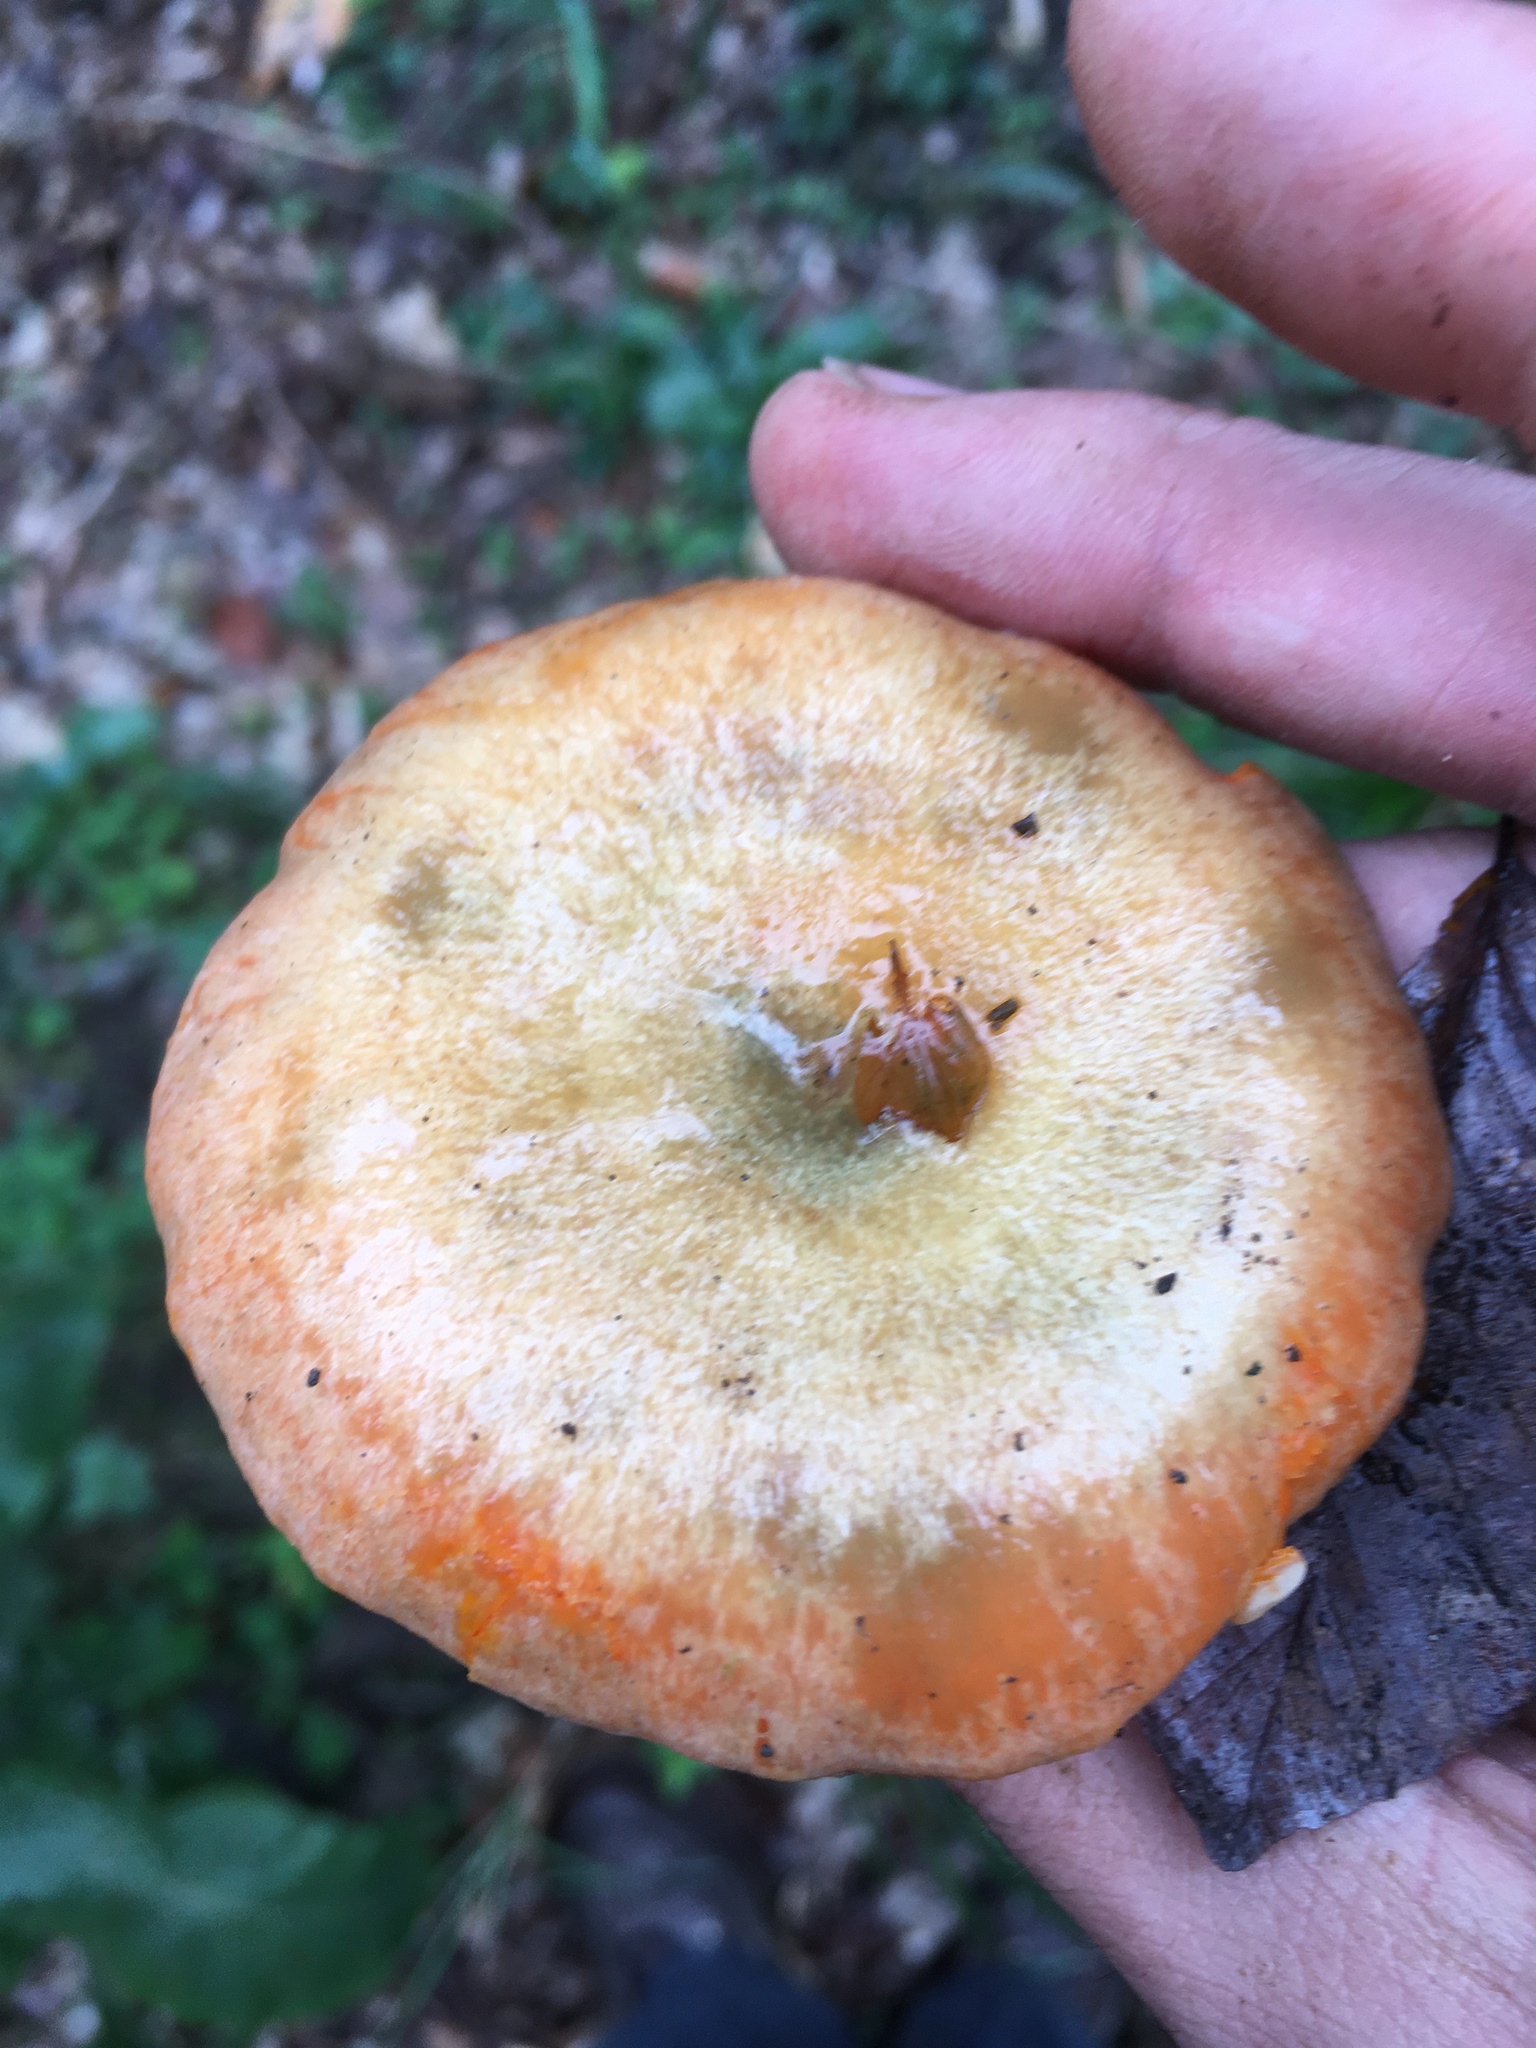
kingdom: Fungi
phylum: Basidiomycota
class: Agaricomycetes
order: Russulales
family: Russulaceae
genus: Lactarius
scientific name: Lactarius deterrimus
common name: False saffron milkcap
